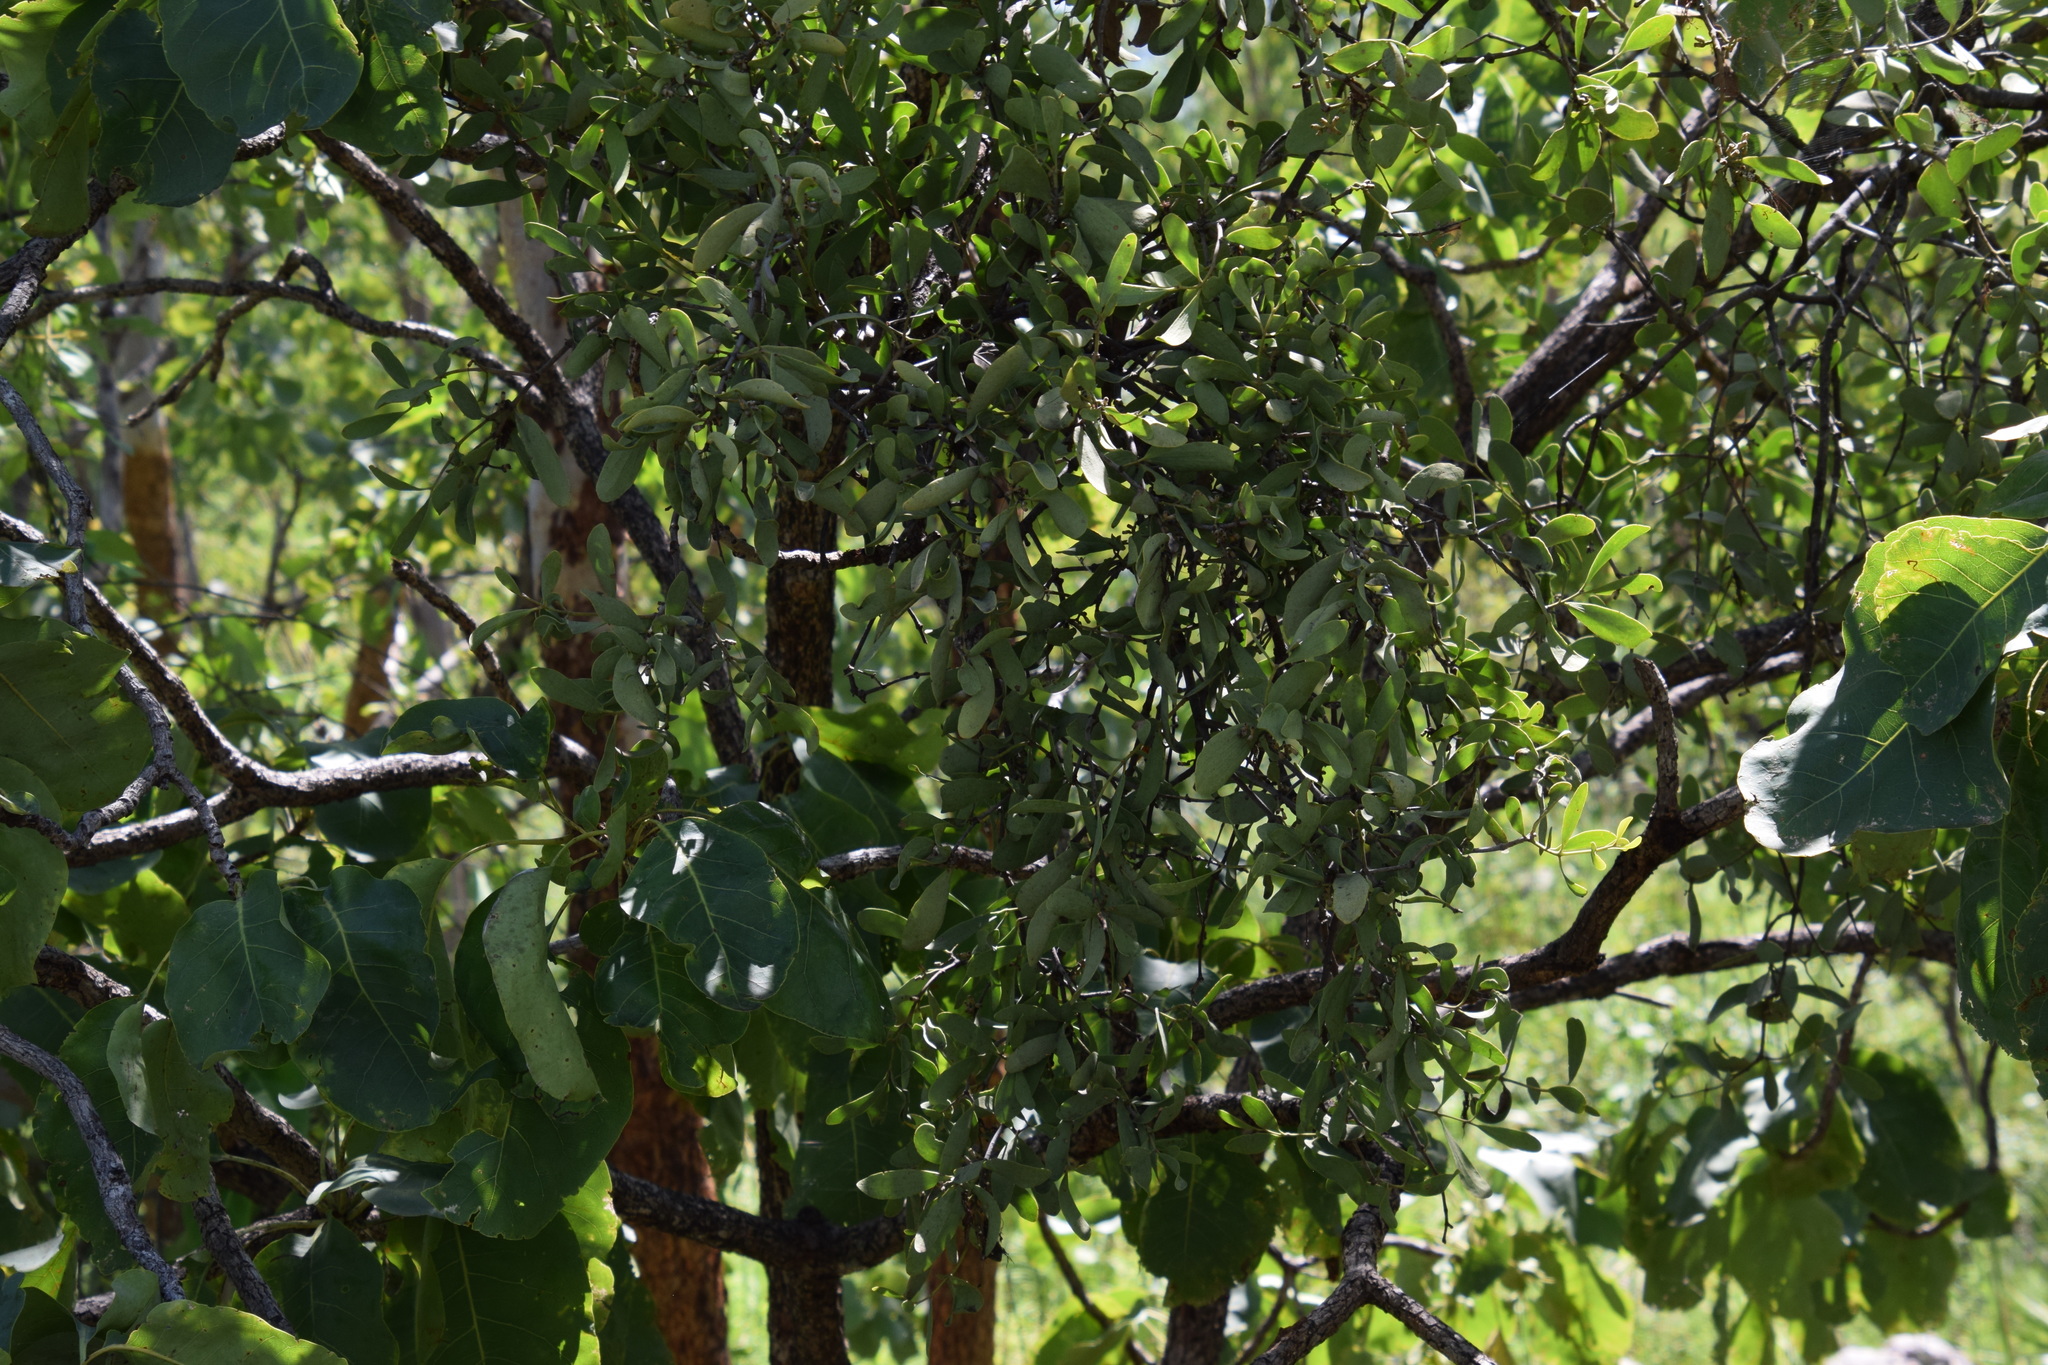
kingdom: Plantae
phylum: Tracheophyta
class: Magnoliopsida
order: Santalales
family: Loranthaceae
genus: Amyema
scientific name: Amyema villiflora
